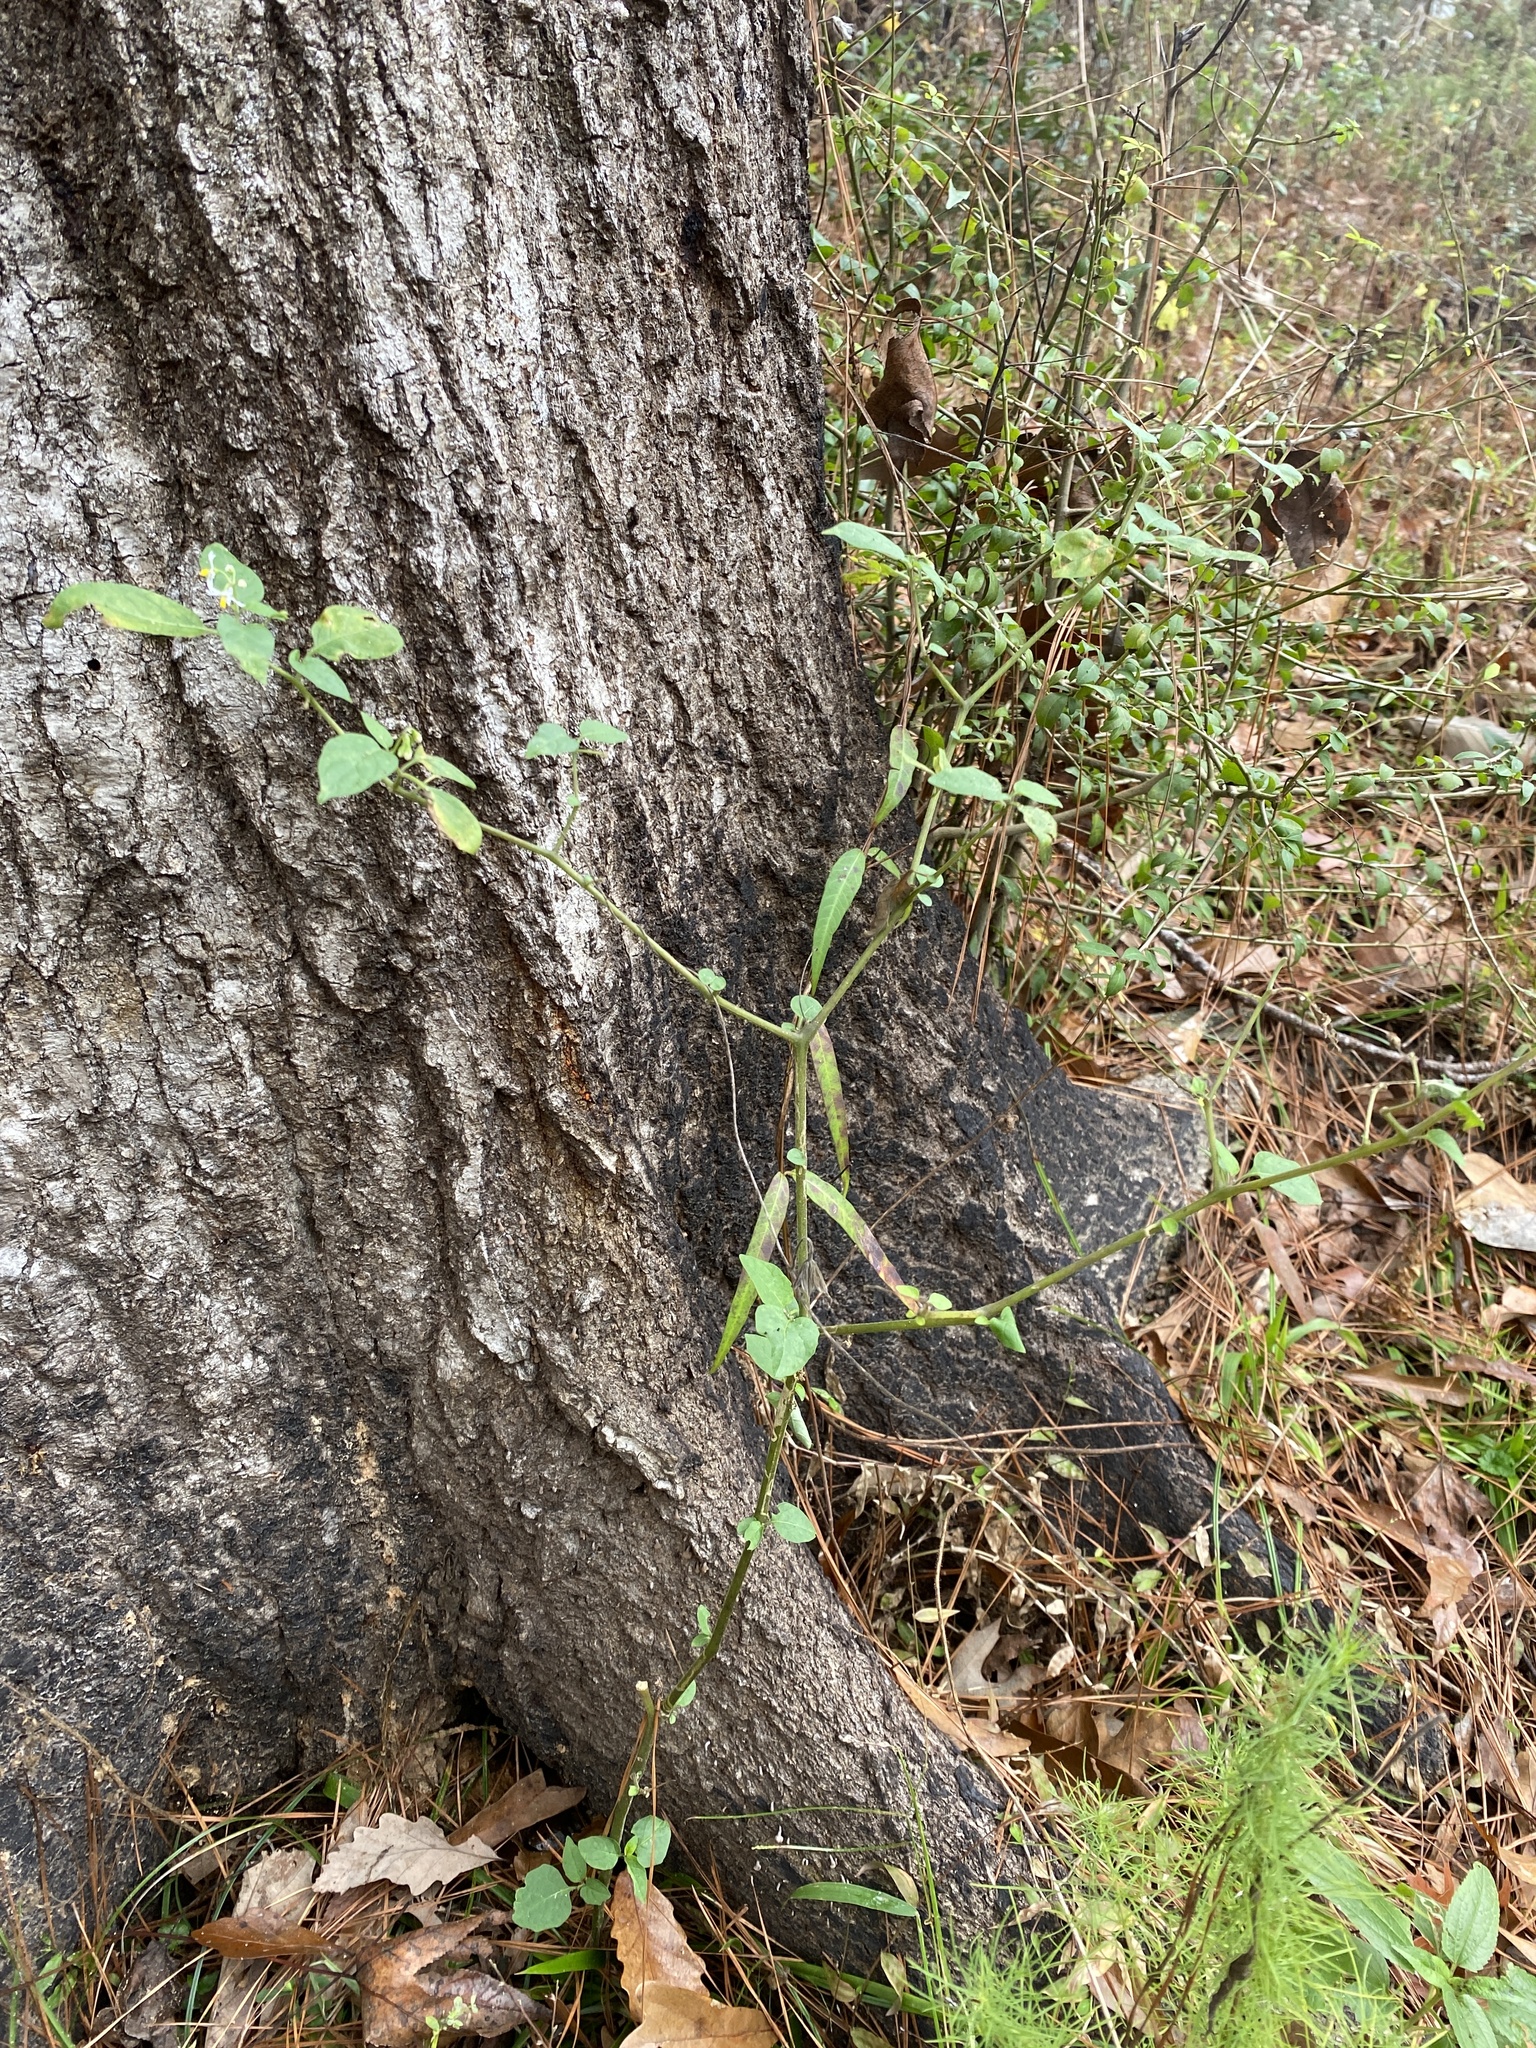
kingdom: Plantae
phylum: Tracheophyta
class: Magnoliopsida
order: Solanales
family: Solanaceae
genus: Solanum
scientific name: Solanum emulans
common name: Eastern black nightshade
